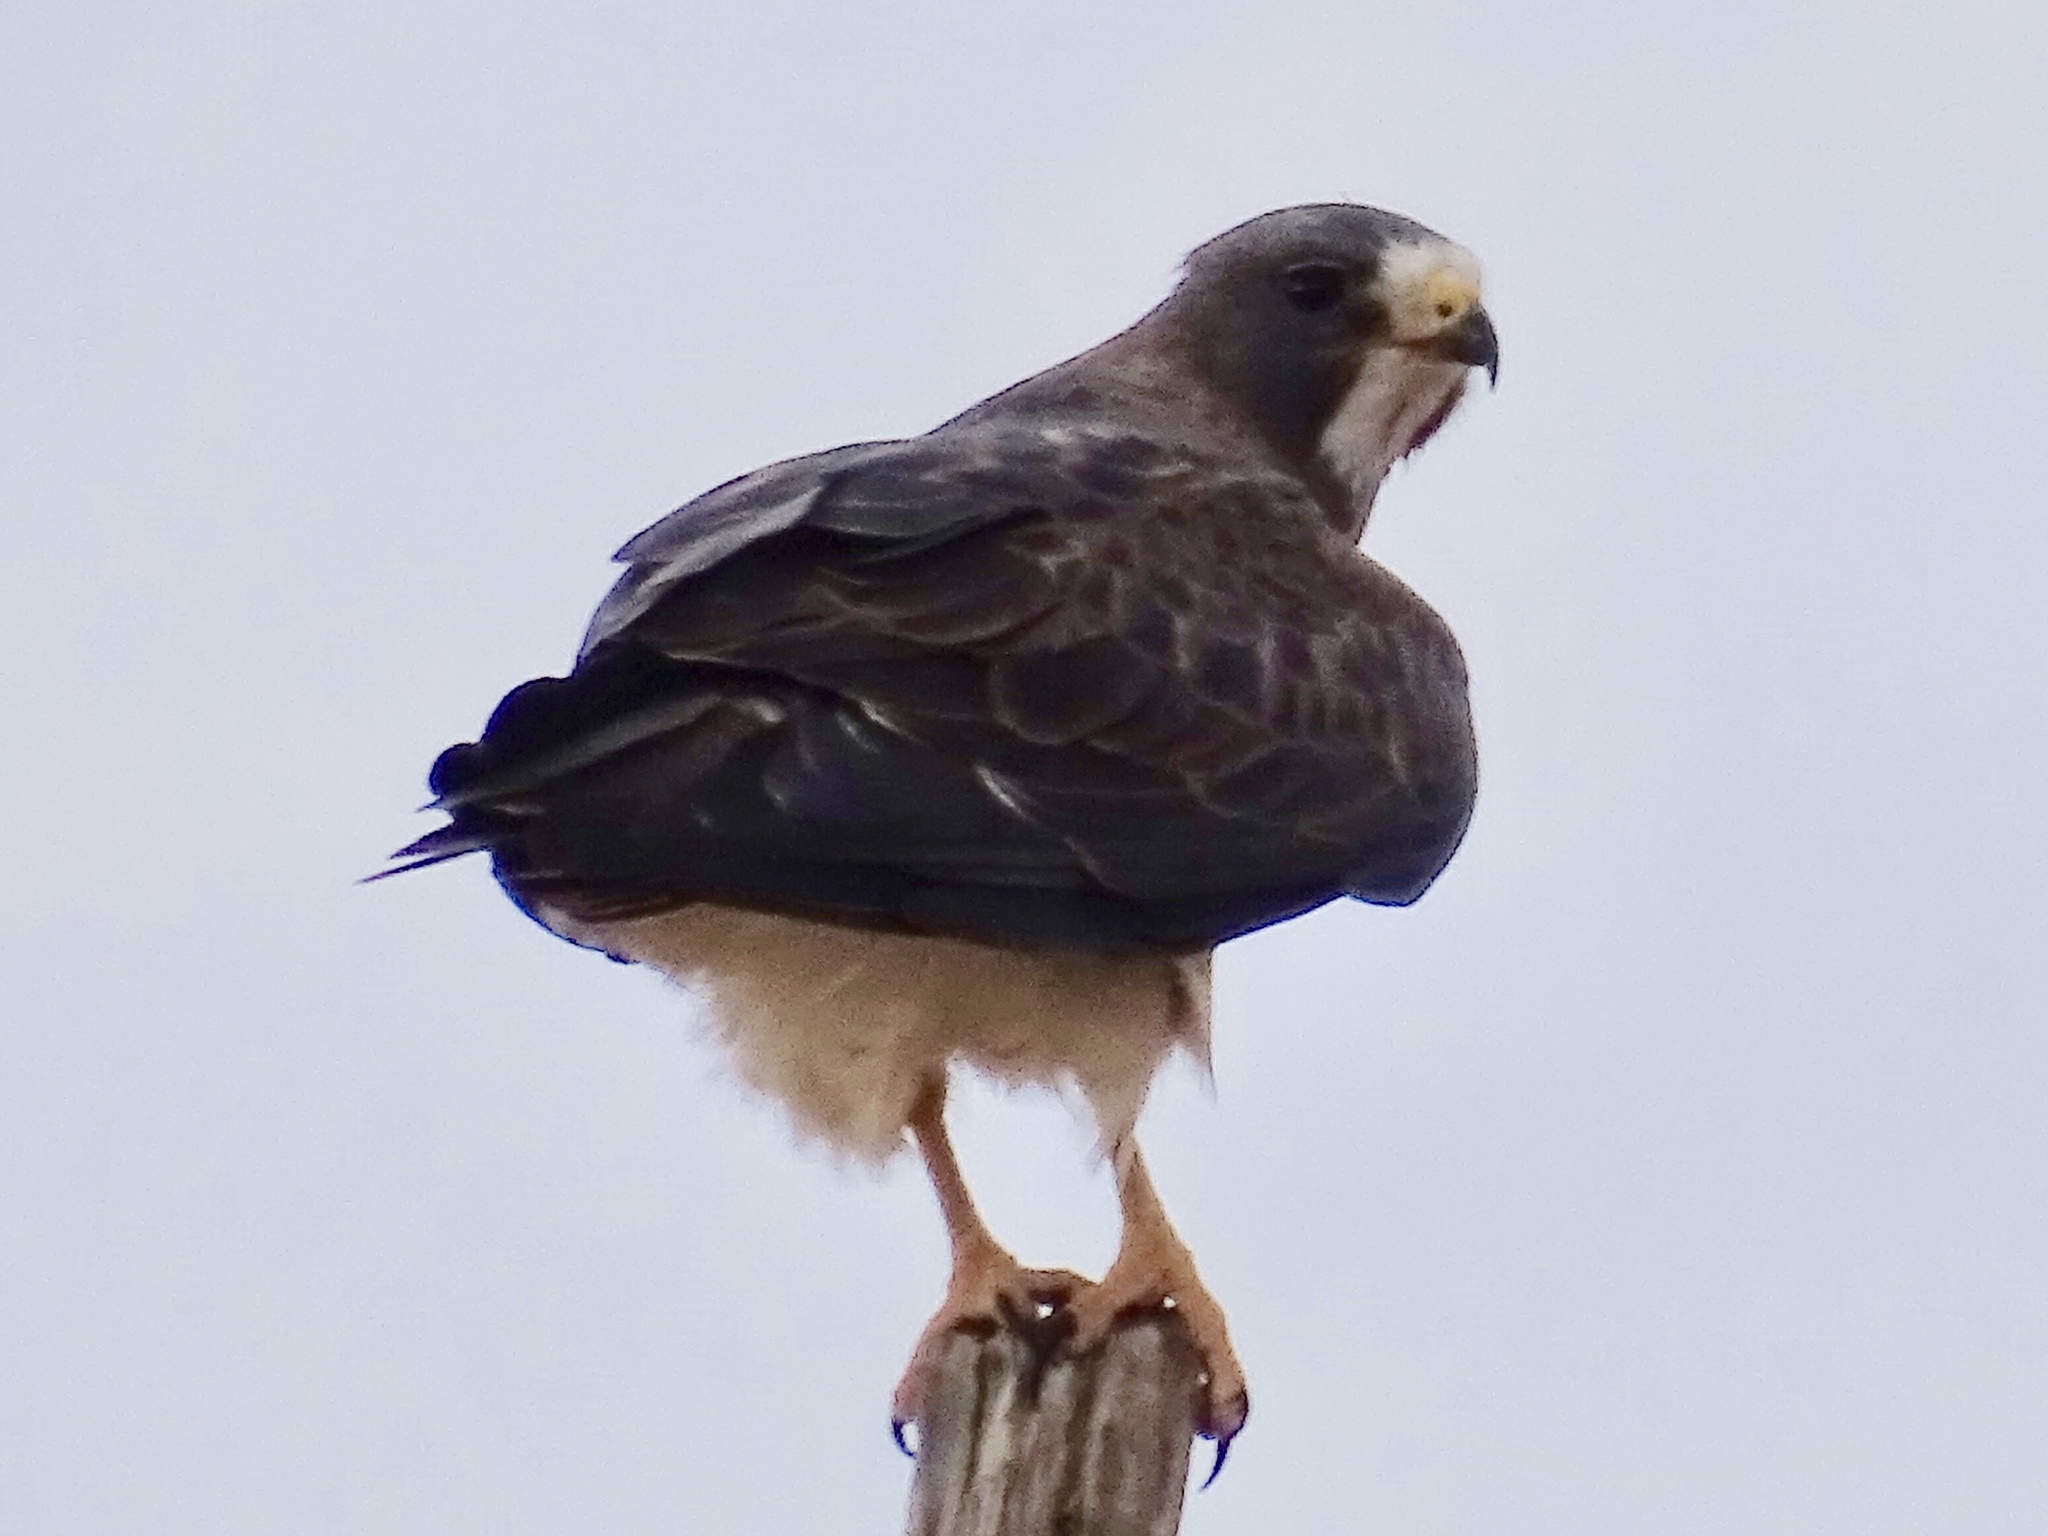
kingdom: Animalia
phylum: Chordata
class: Aves
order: Accipitriformes
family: Accipitridae
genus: Buteo
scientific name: Buteo swainsoni
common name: Swainson's hawk
